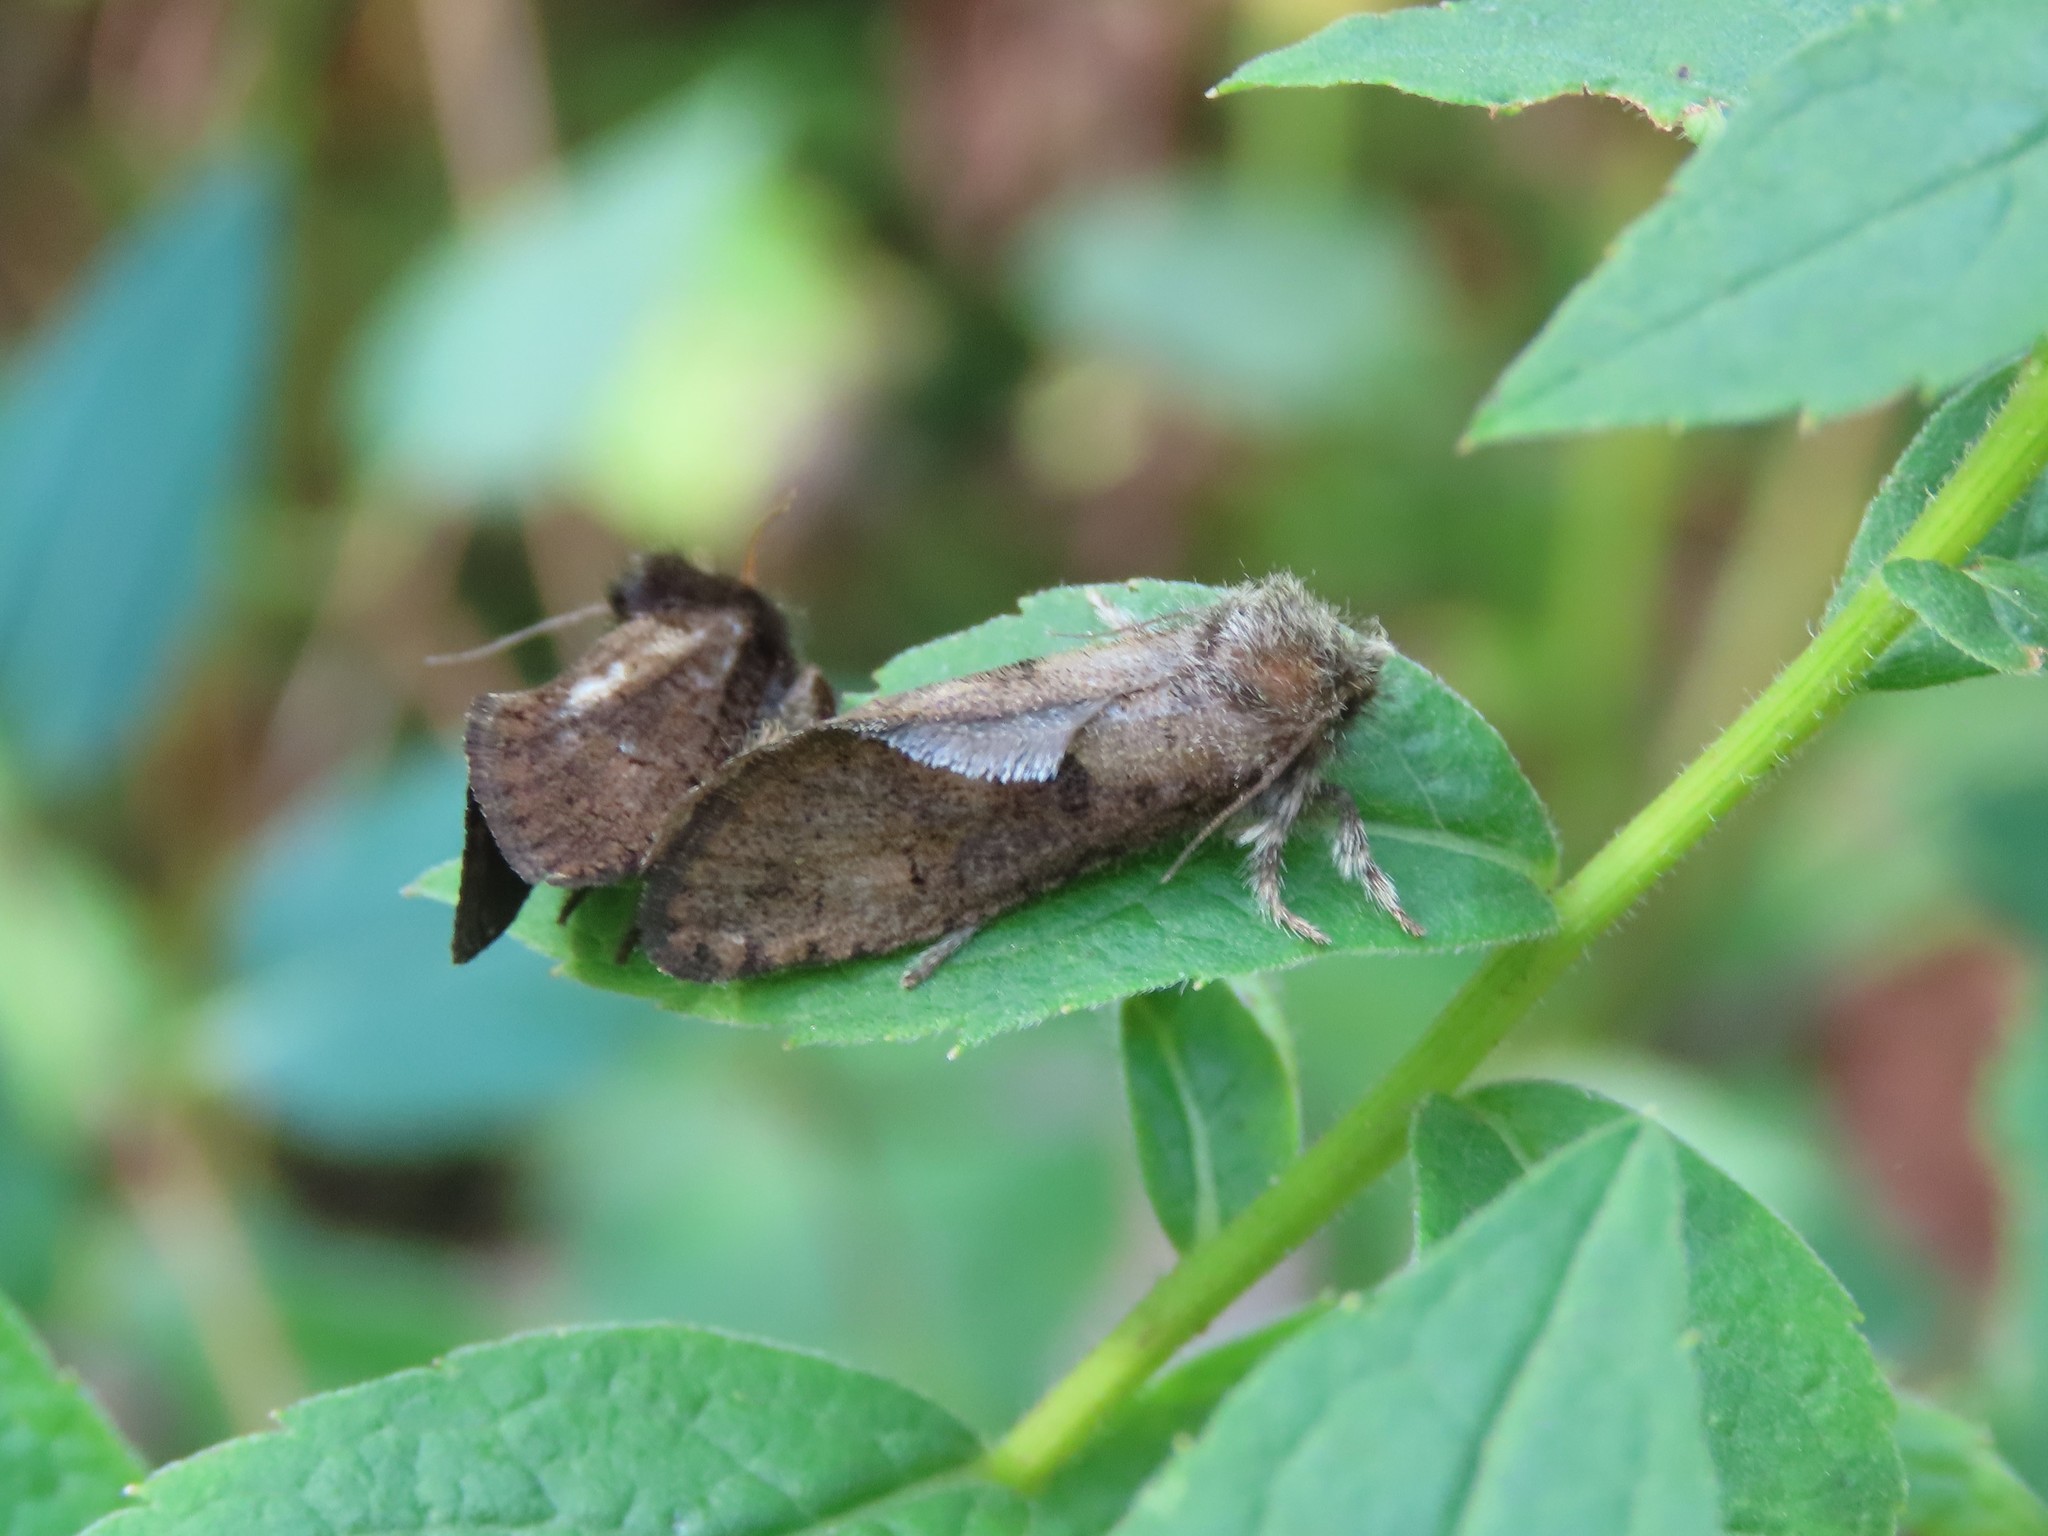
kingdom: Animalia
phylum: Arthropoda
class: Insecta
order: Lepidoptera
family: Tineidae
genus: Acrolophus
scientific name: Acrolophus mora
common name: Dark acrolophus
